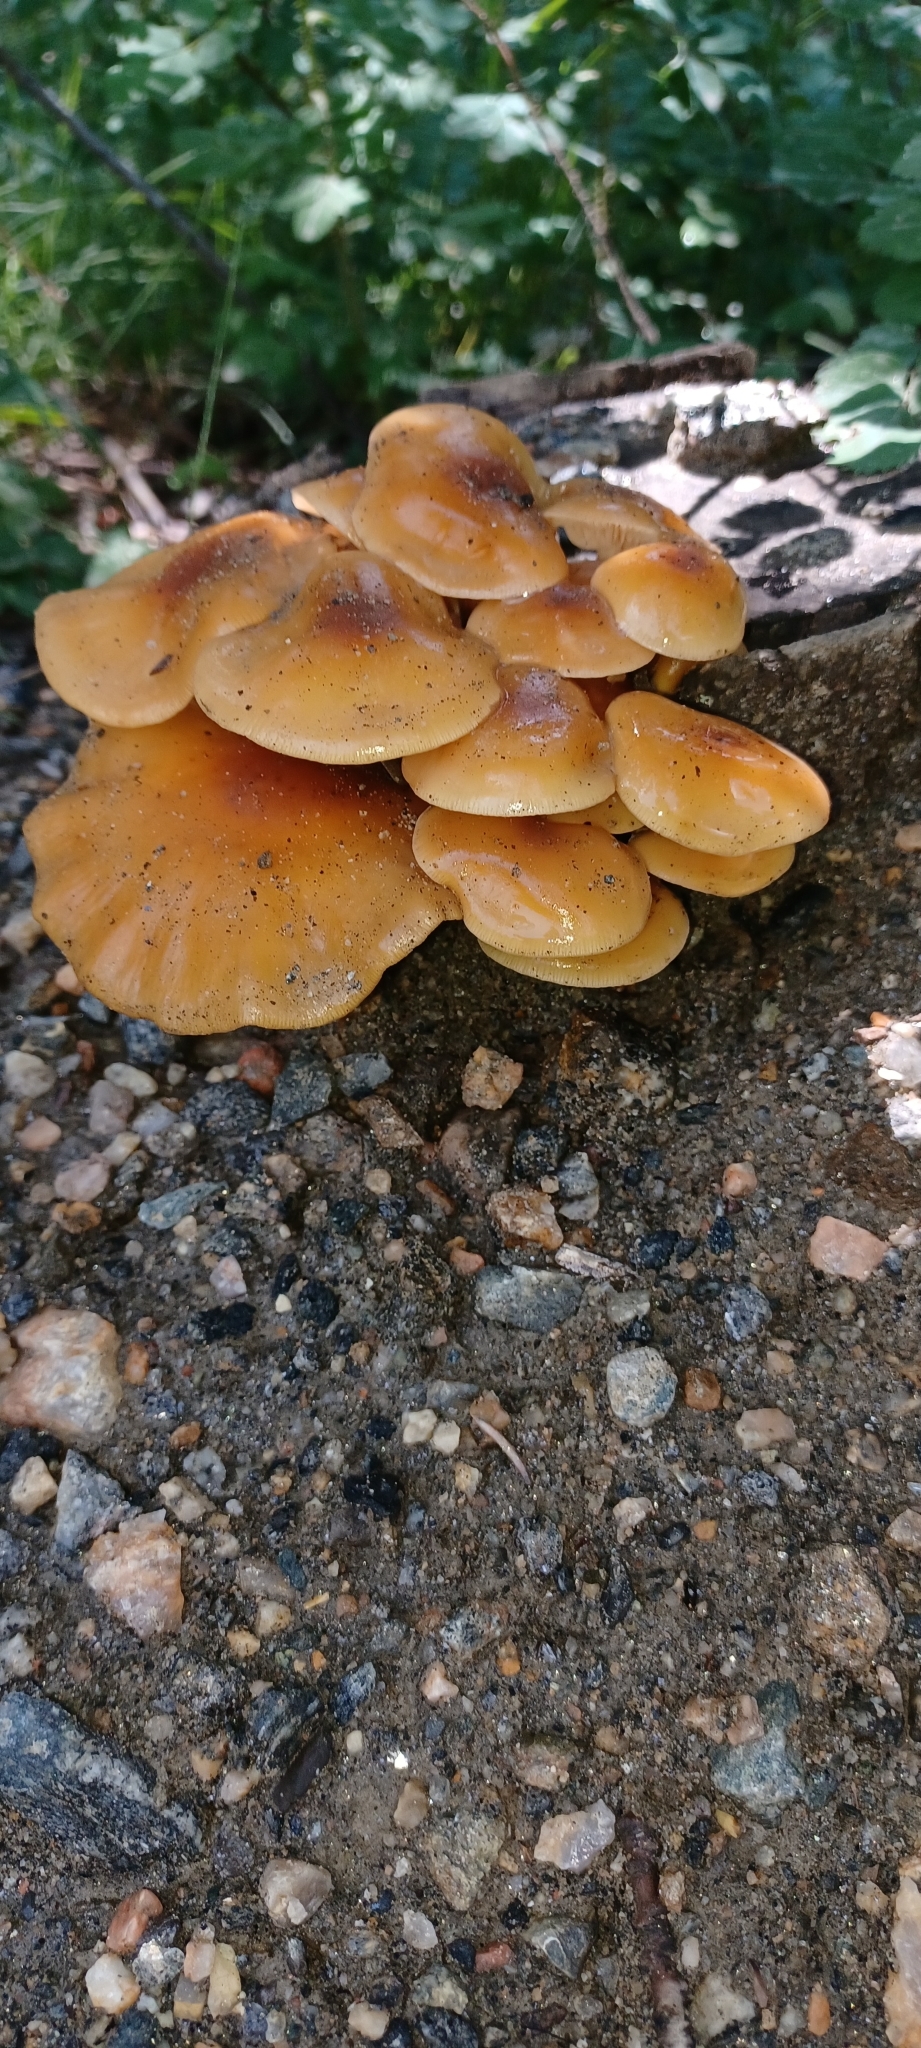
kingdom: Fungi
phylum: Basidiomycota
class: Agaricomycetes
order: Agaricales
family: Physalacriaceae
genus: Flammulina
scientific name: Flammulina populicola
